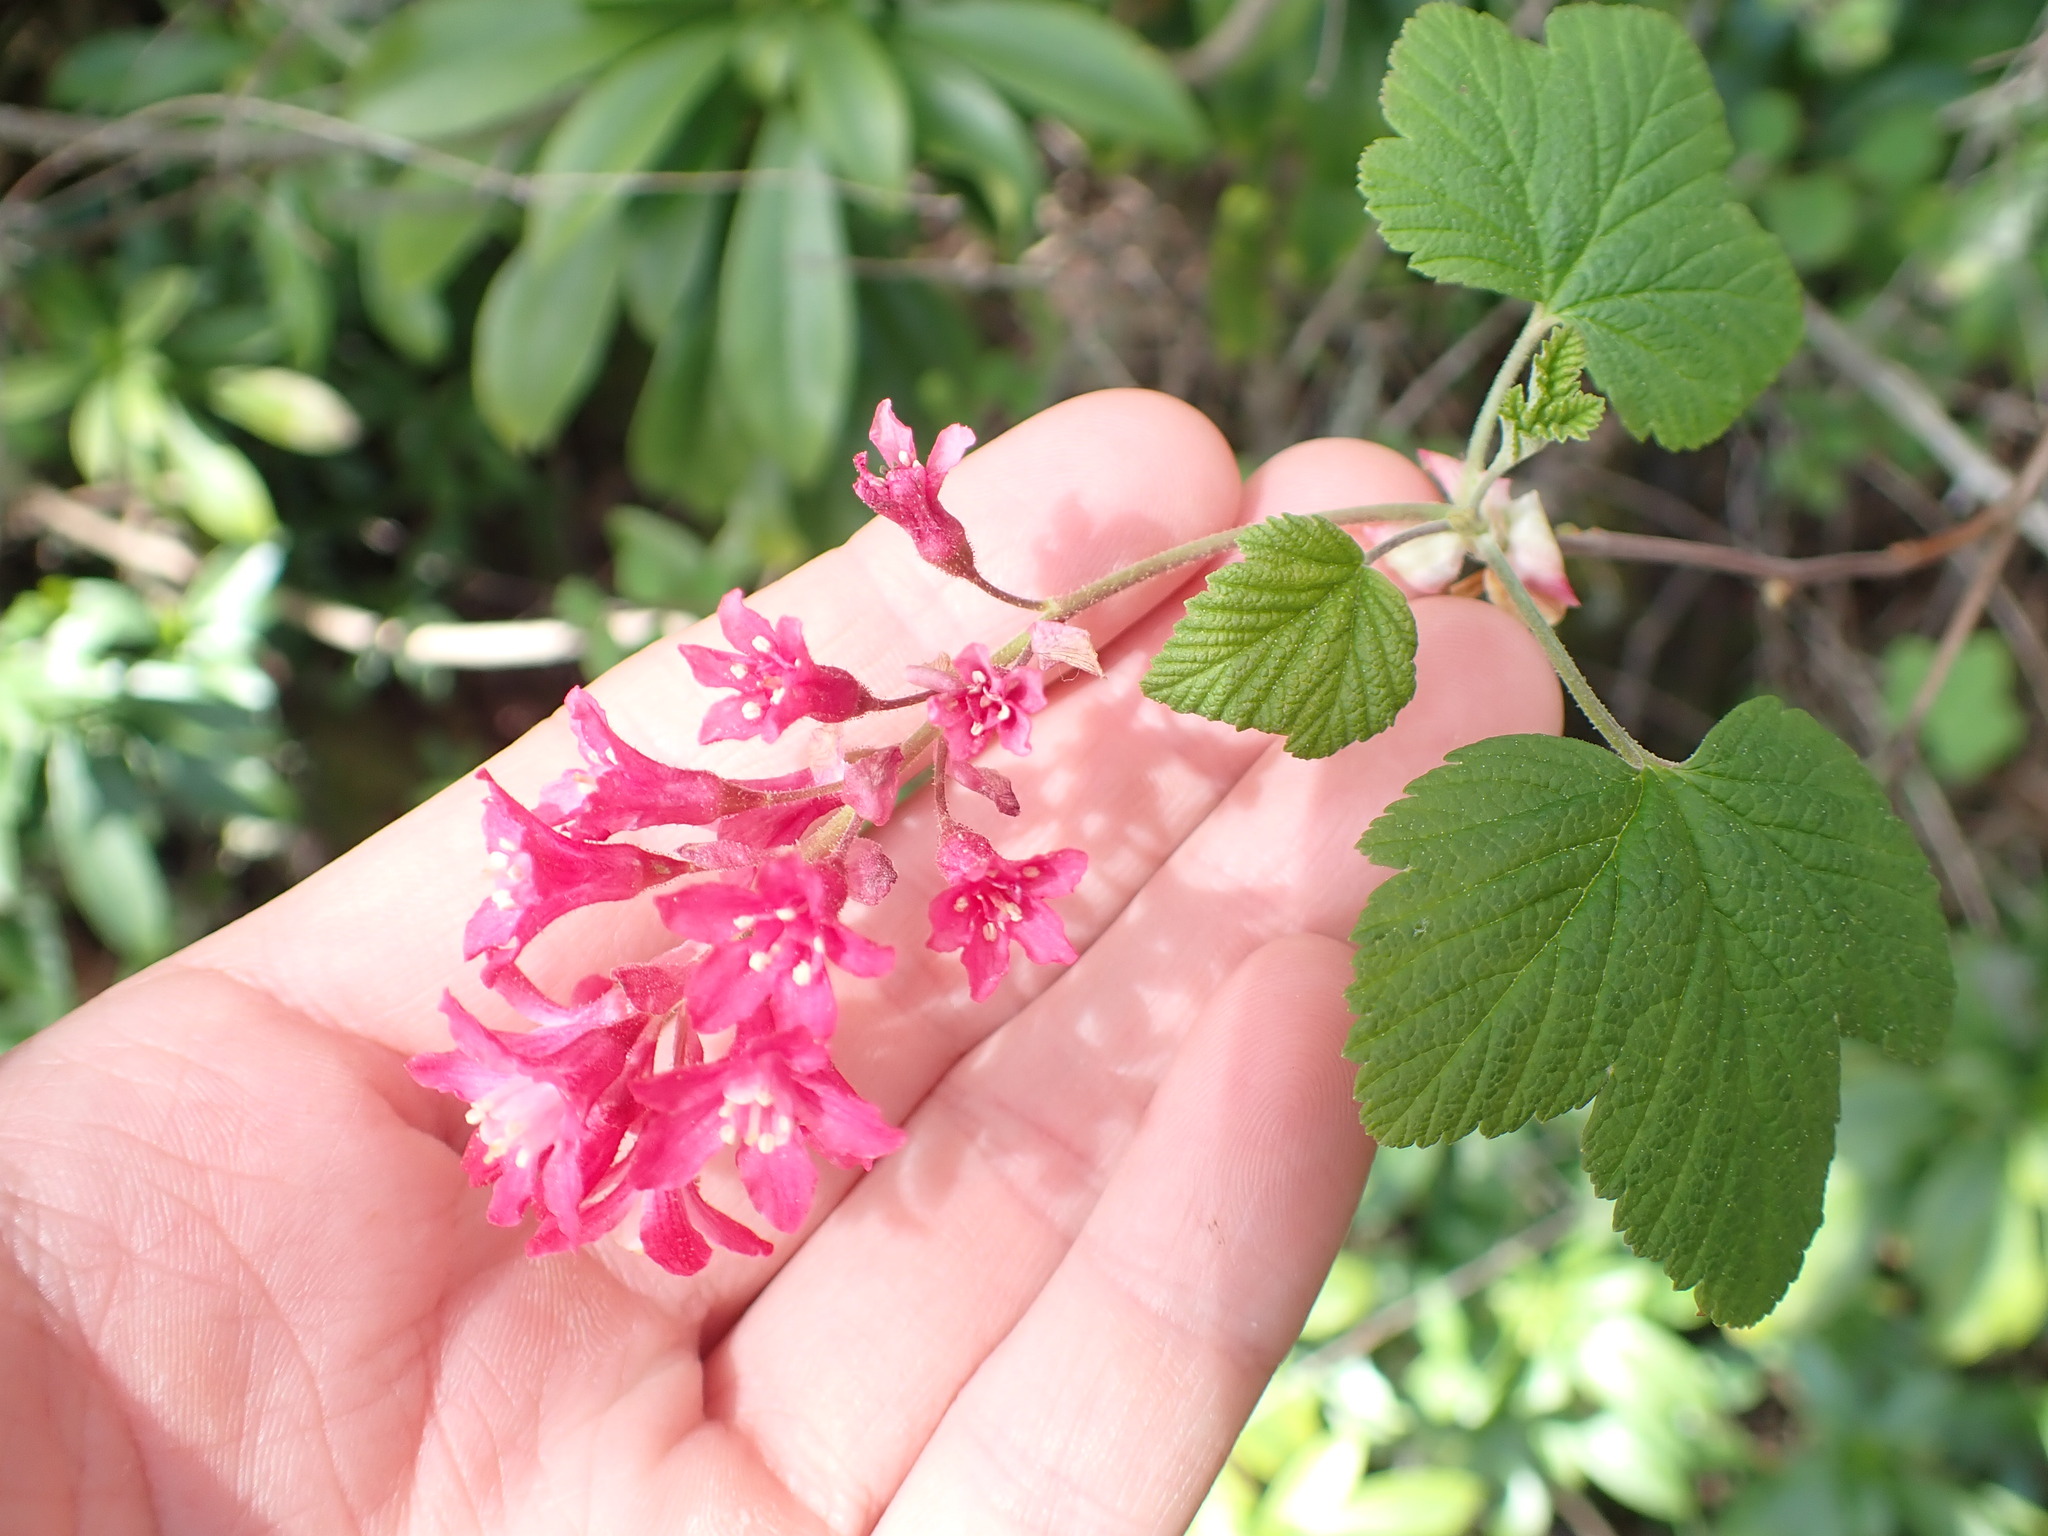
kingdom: Plantae
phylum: Tracheophyta
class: Magnoliopsida
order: Saxifragales
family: Grossulariaceae
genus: Ribes
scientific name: Ribes sanguineum
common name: Flowering currant
